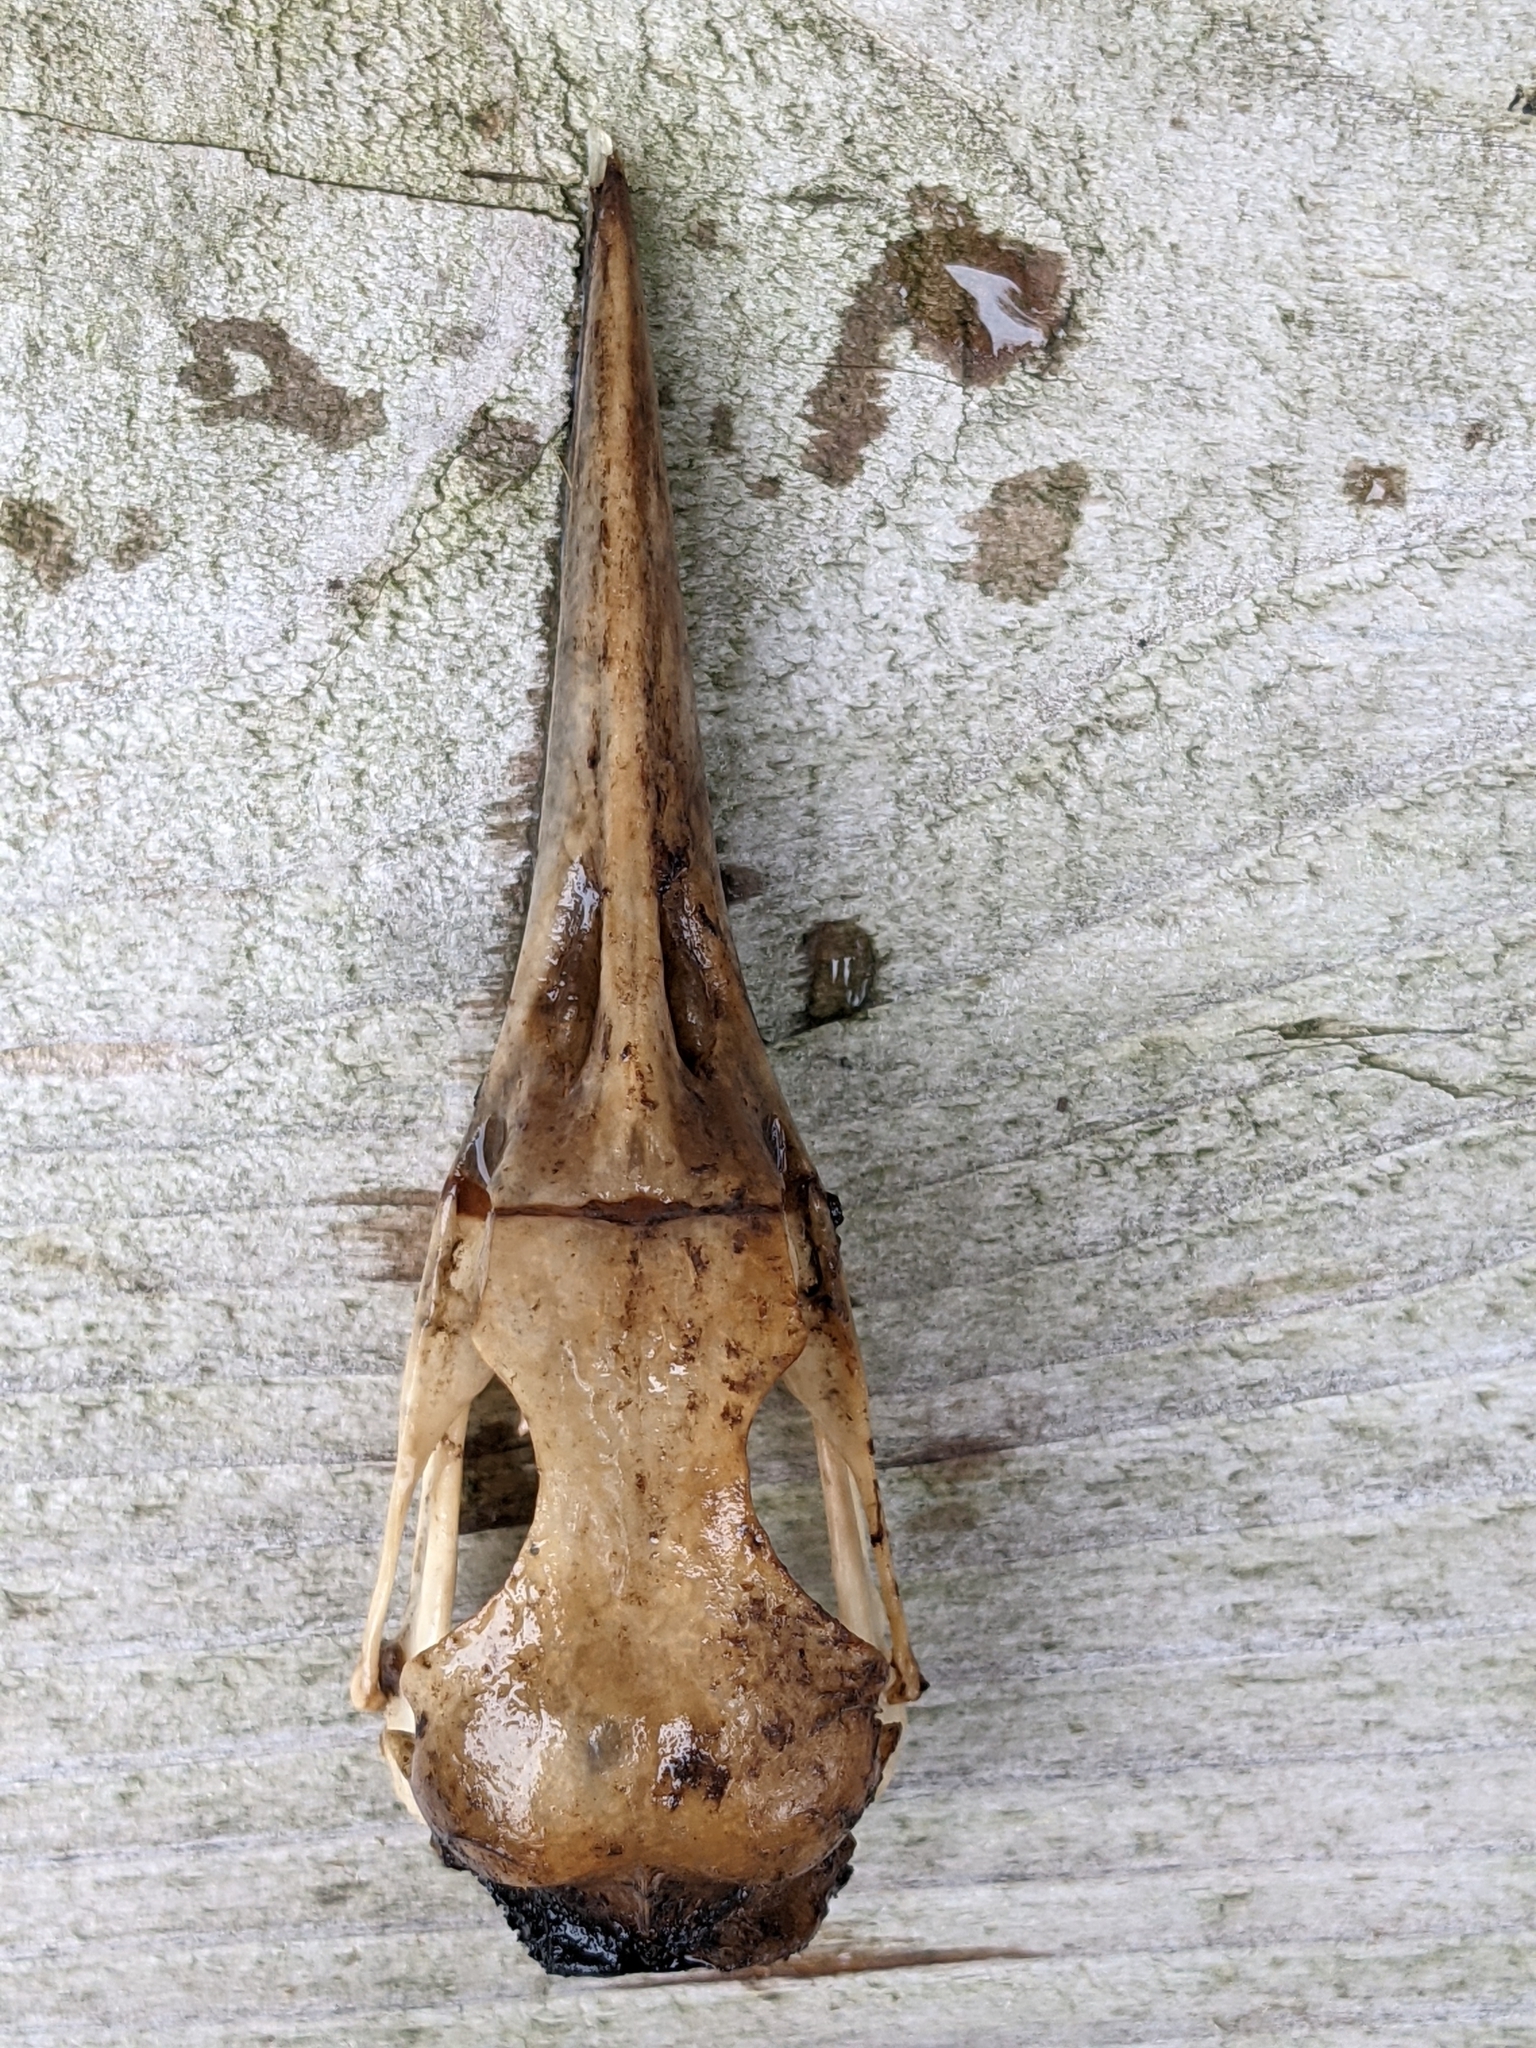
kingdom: Animalia
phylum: Chordata
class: Aves
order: Coraciiformes
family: Alcedinidae
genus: Megaceryle
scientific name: Megaceryle alcyon
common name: Belted kingfisher
